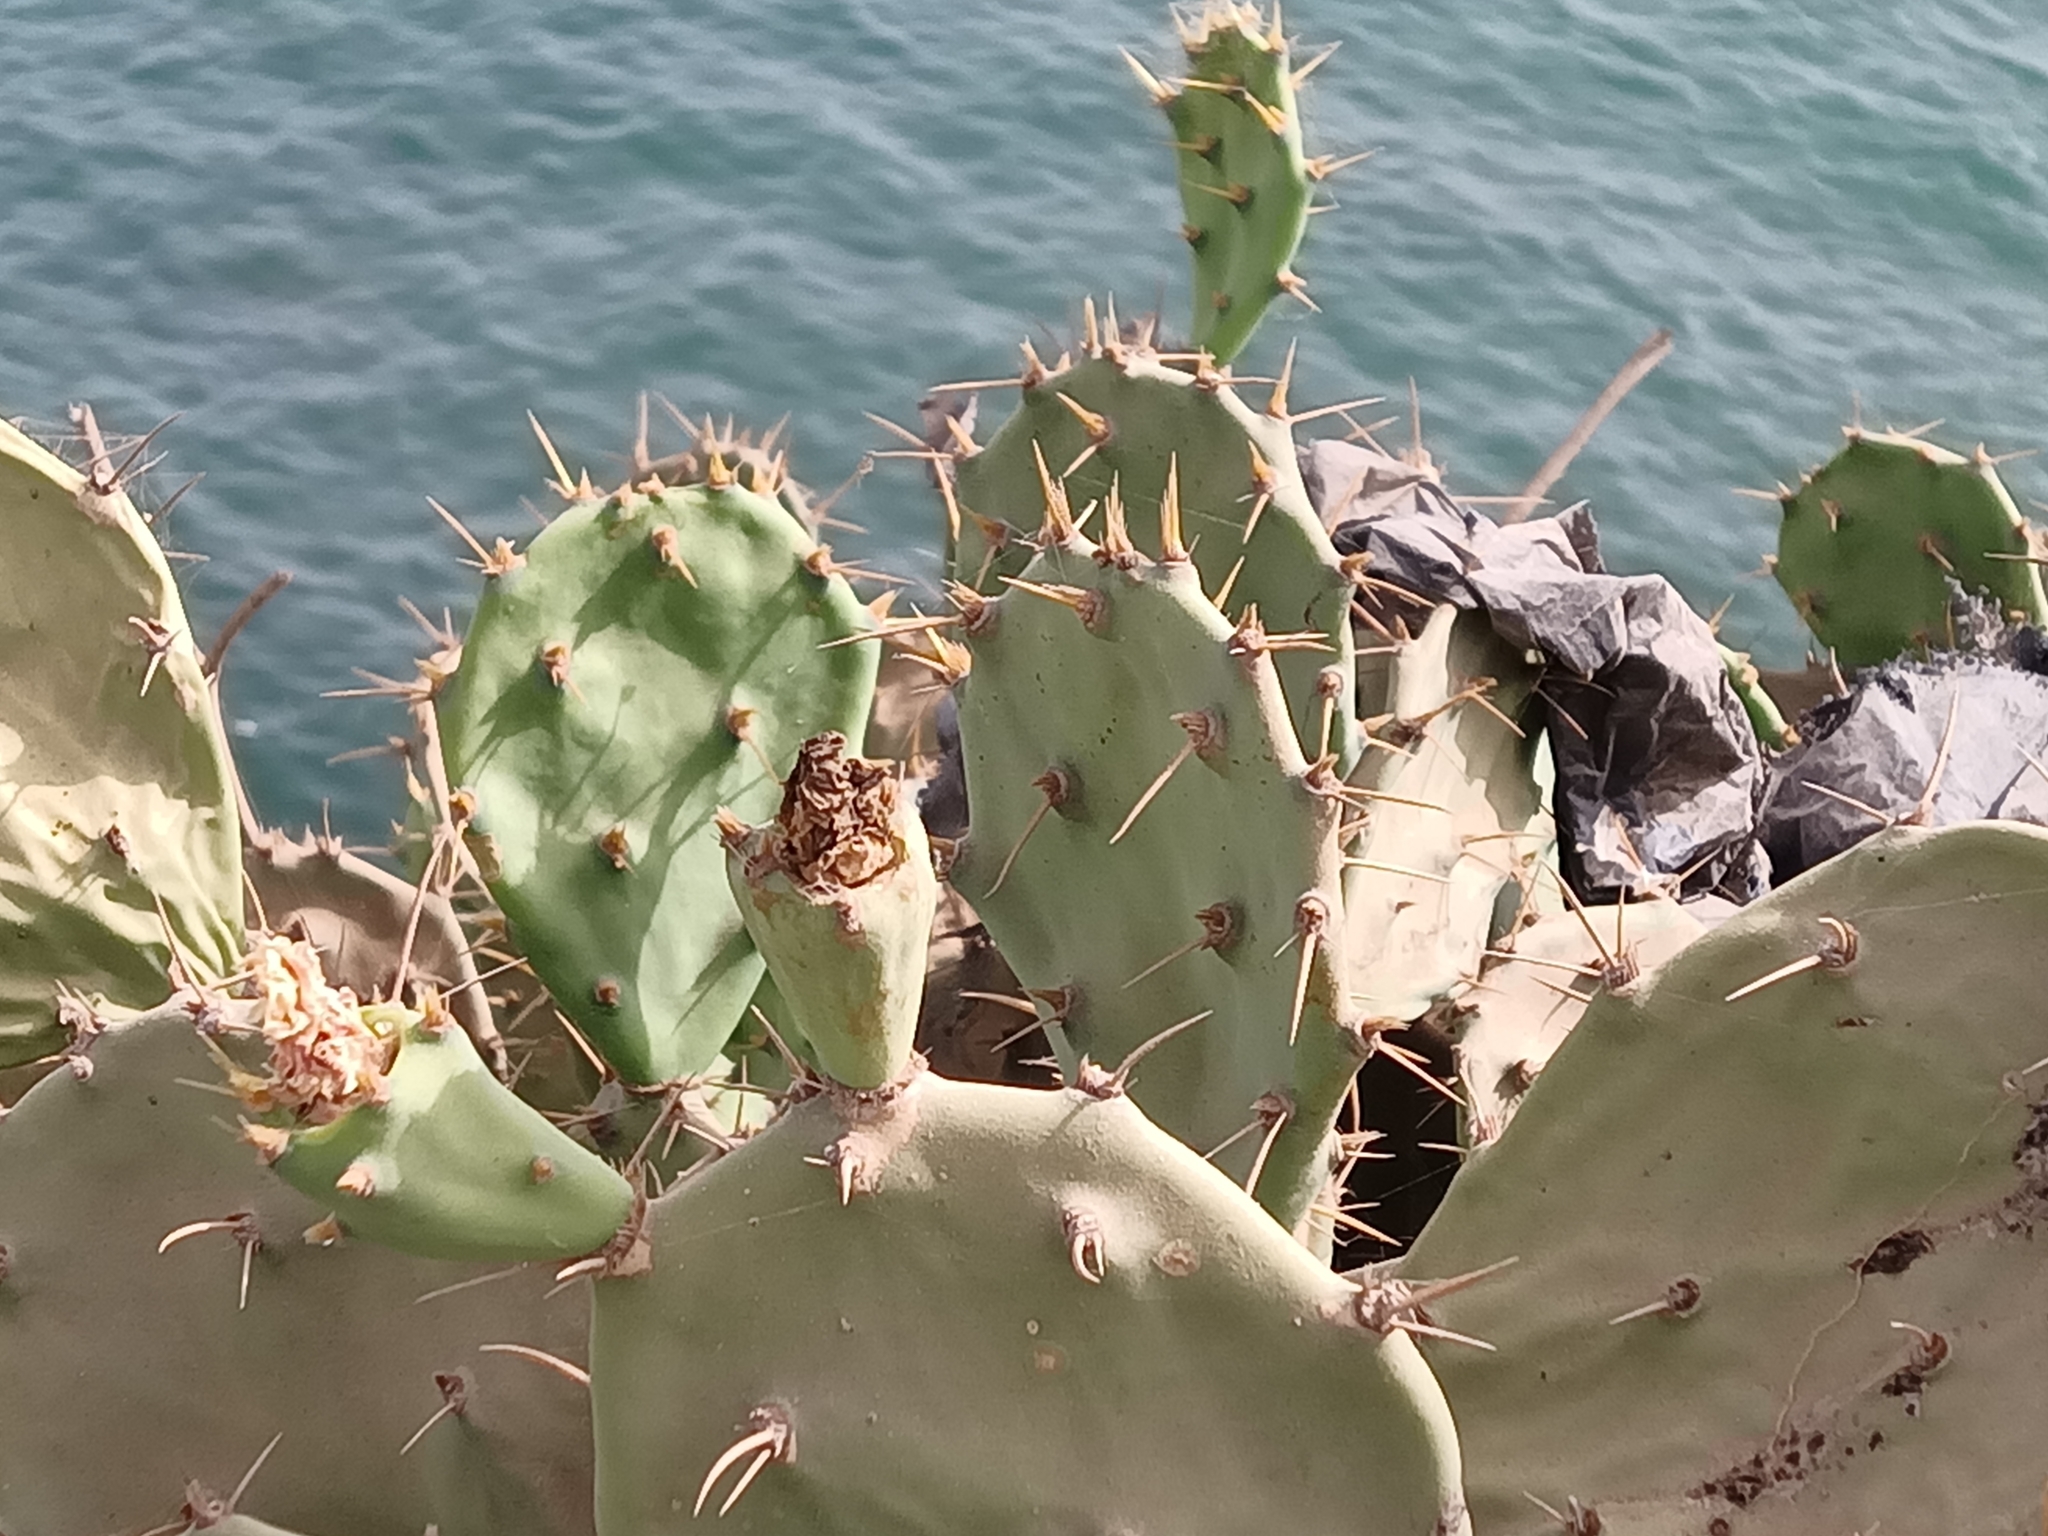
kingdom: Plantae
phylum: Tracheophyta
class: Magnoliopsida
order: Caryophyllales
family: Cactaceae
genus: Opuntia
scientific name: Opuntia stricta
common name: Erect pricklypear
